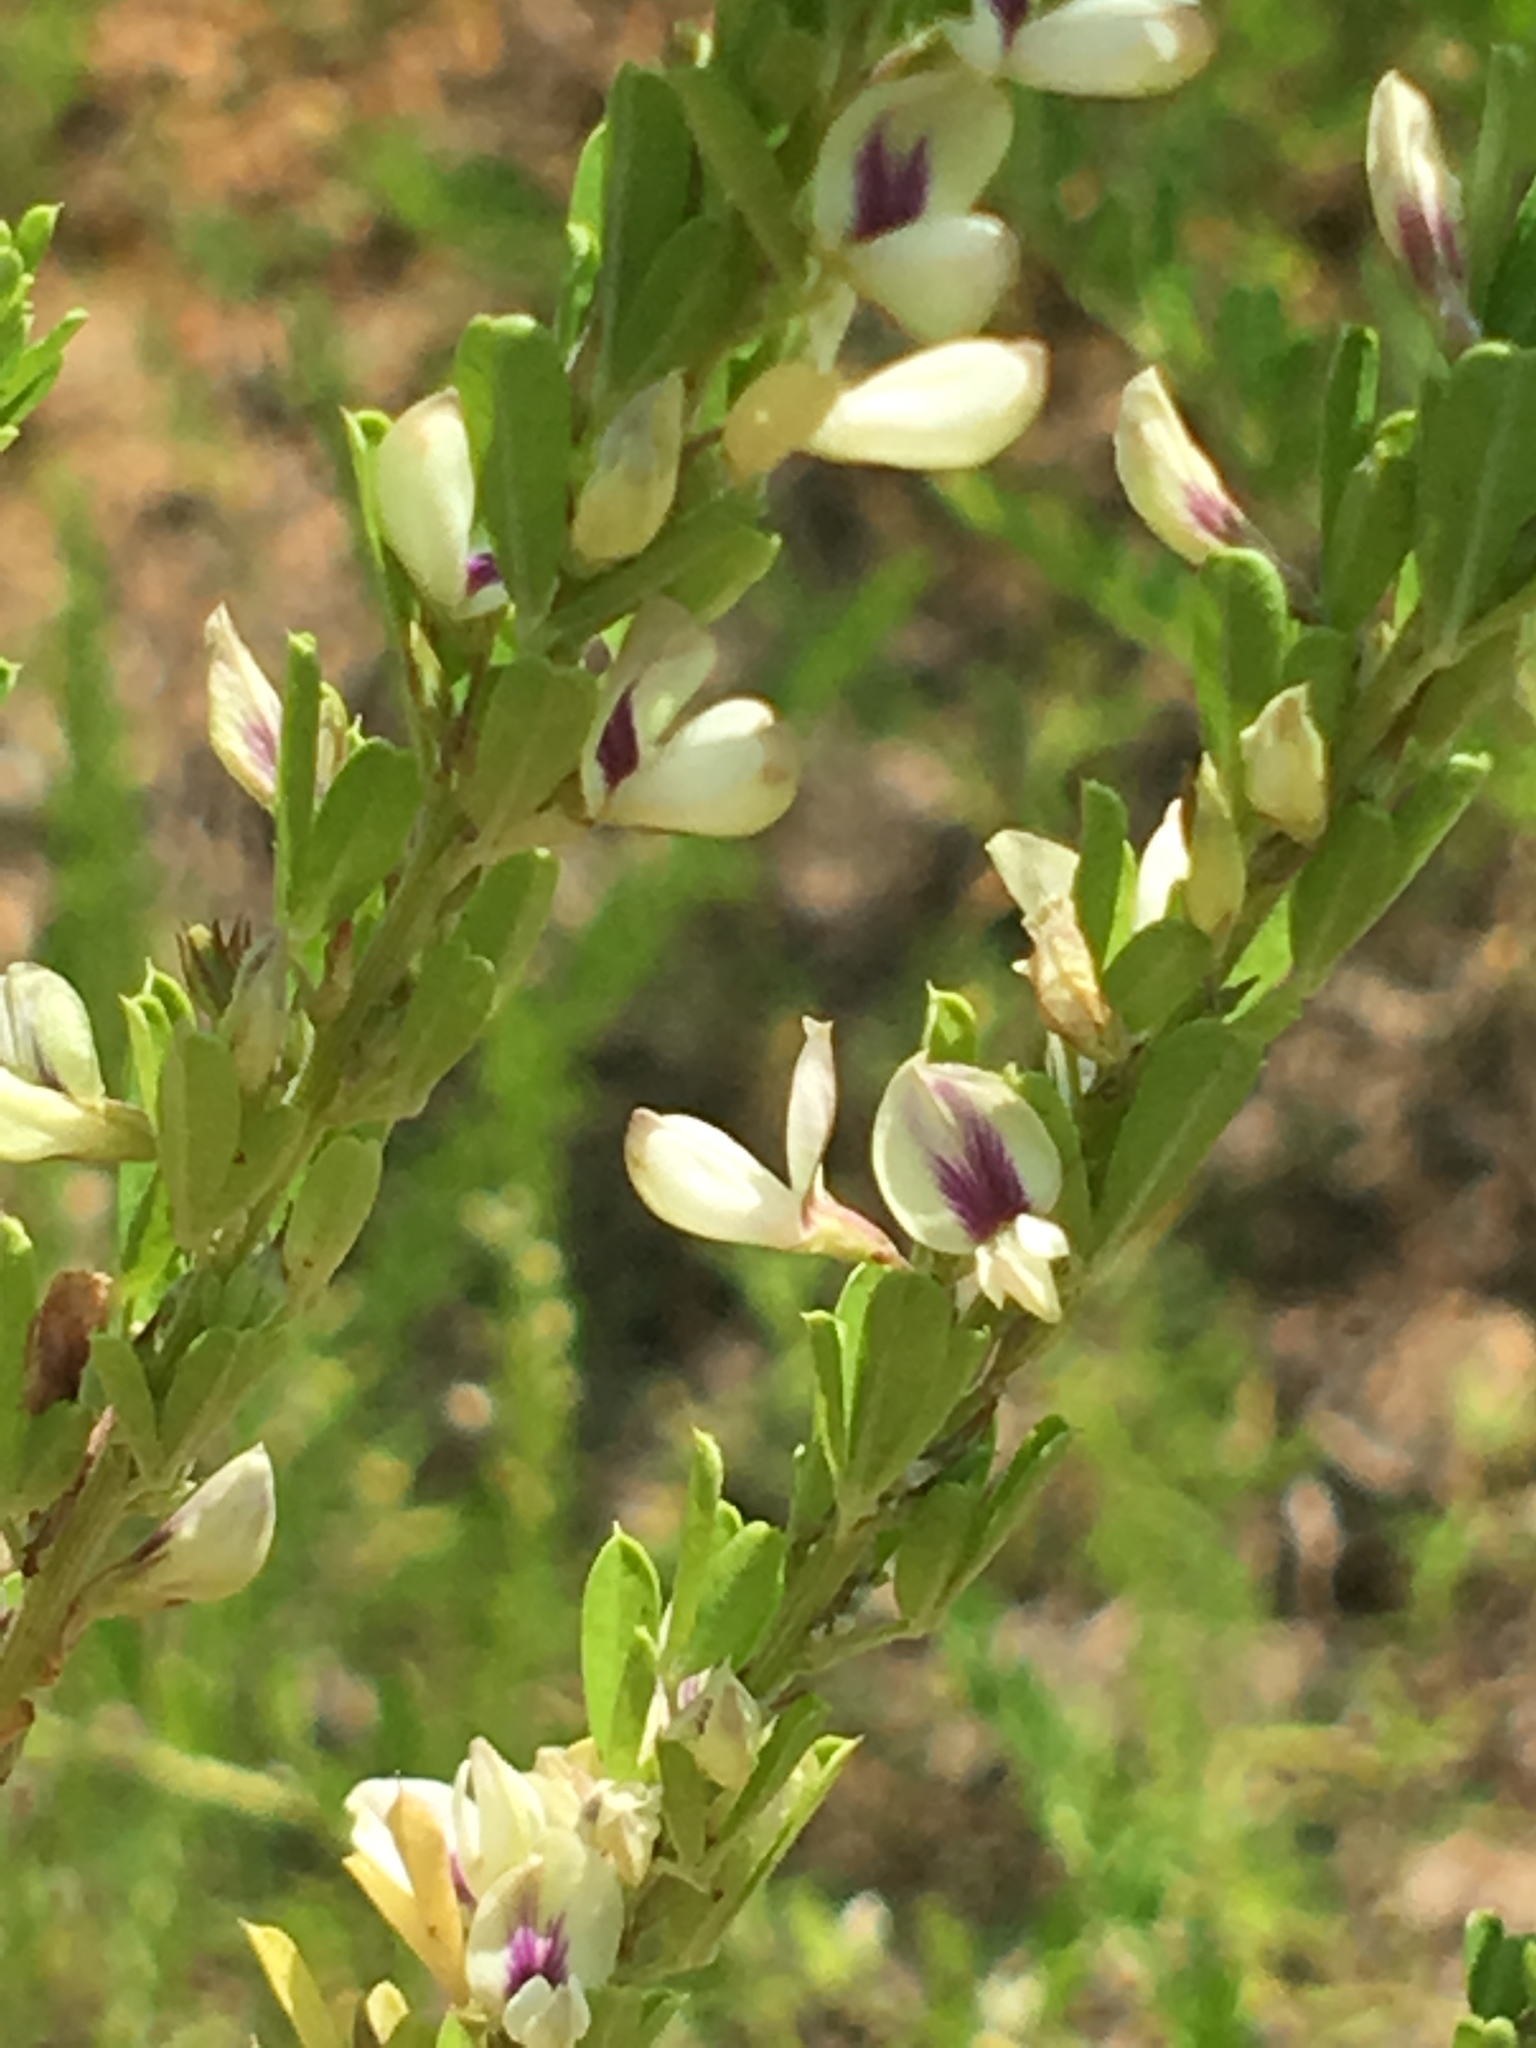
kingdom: Plantae
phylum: Tracheophyta
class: Magnoliopsida
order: Fabales
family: Fabaceae
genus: Lespedeza
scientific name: Lespedeza cuneata
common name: Chinese bush-clover
